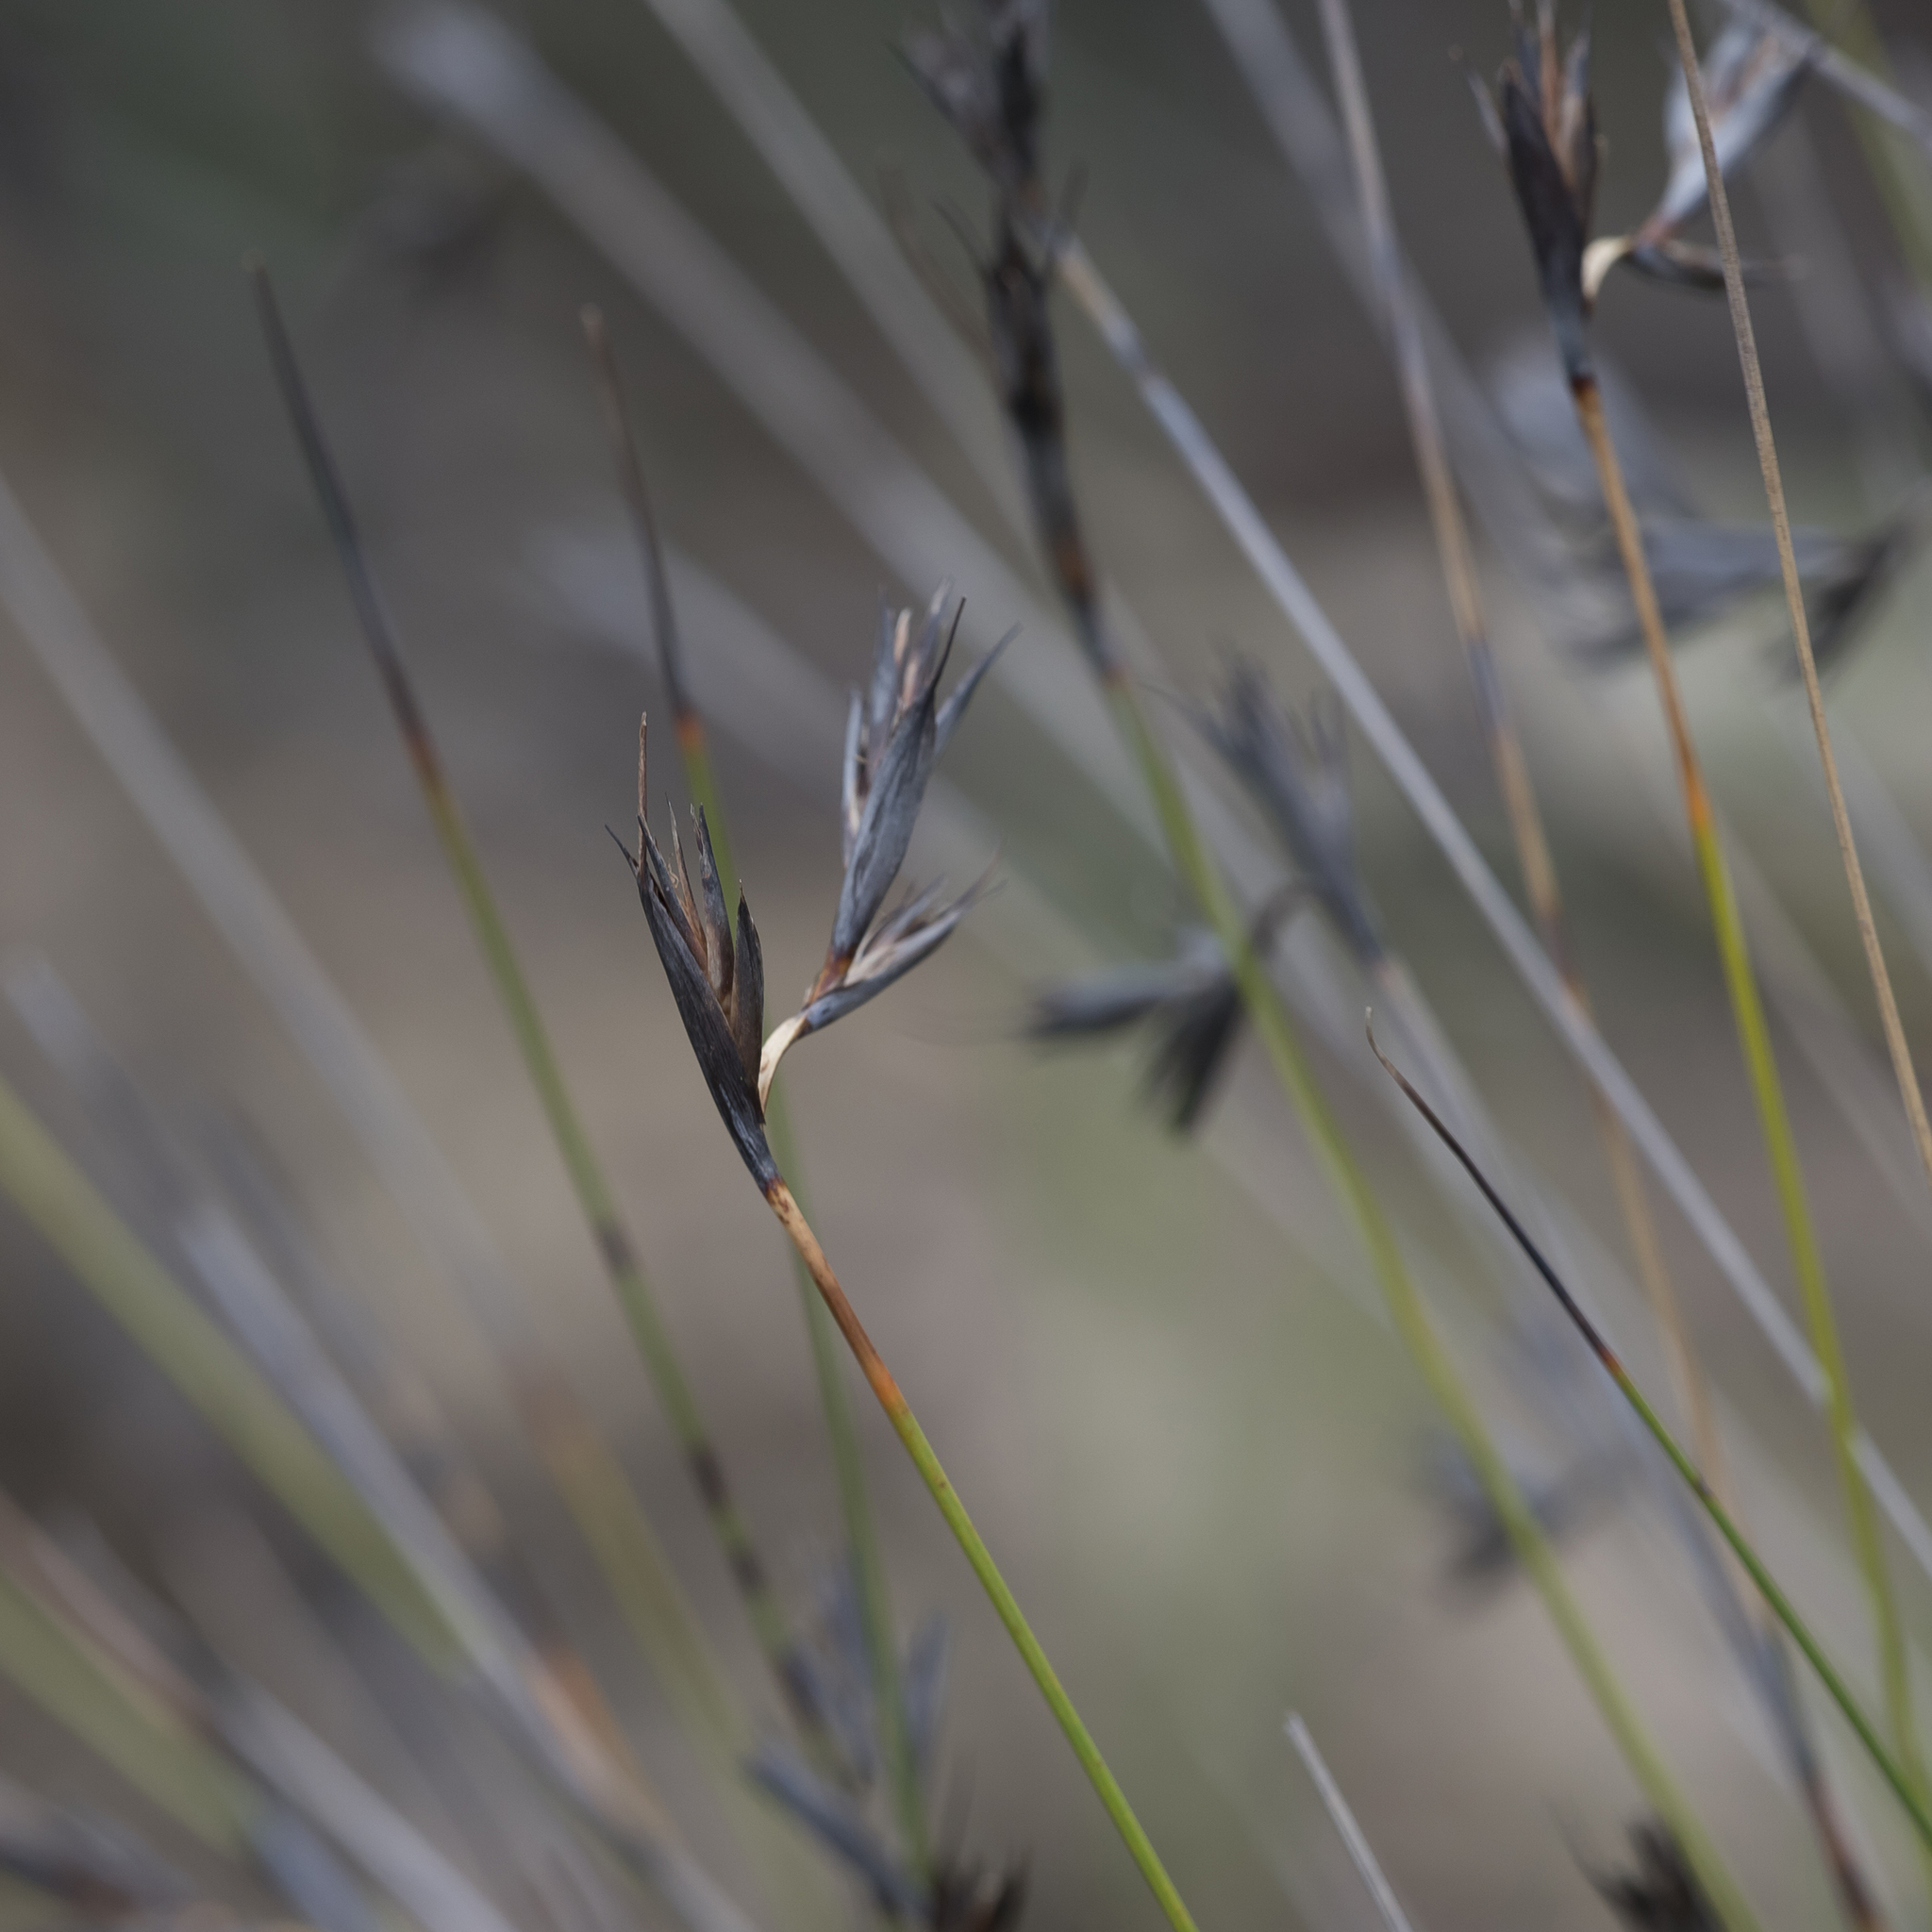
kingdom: Plantae
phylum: Tracheophyta
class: Liliopsida
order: Poales
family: Cyperaceae
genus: Lepidosperma
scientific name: Lepidosperma carphoides
